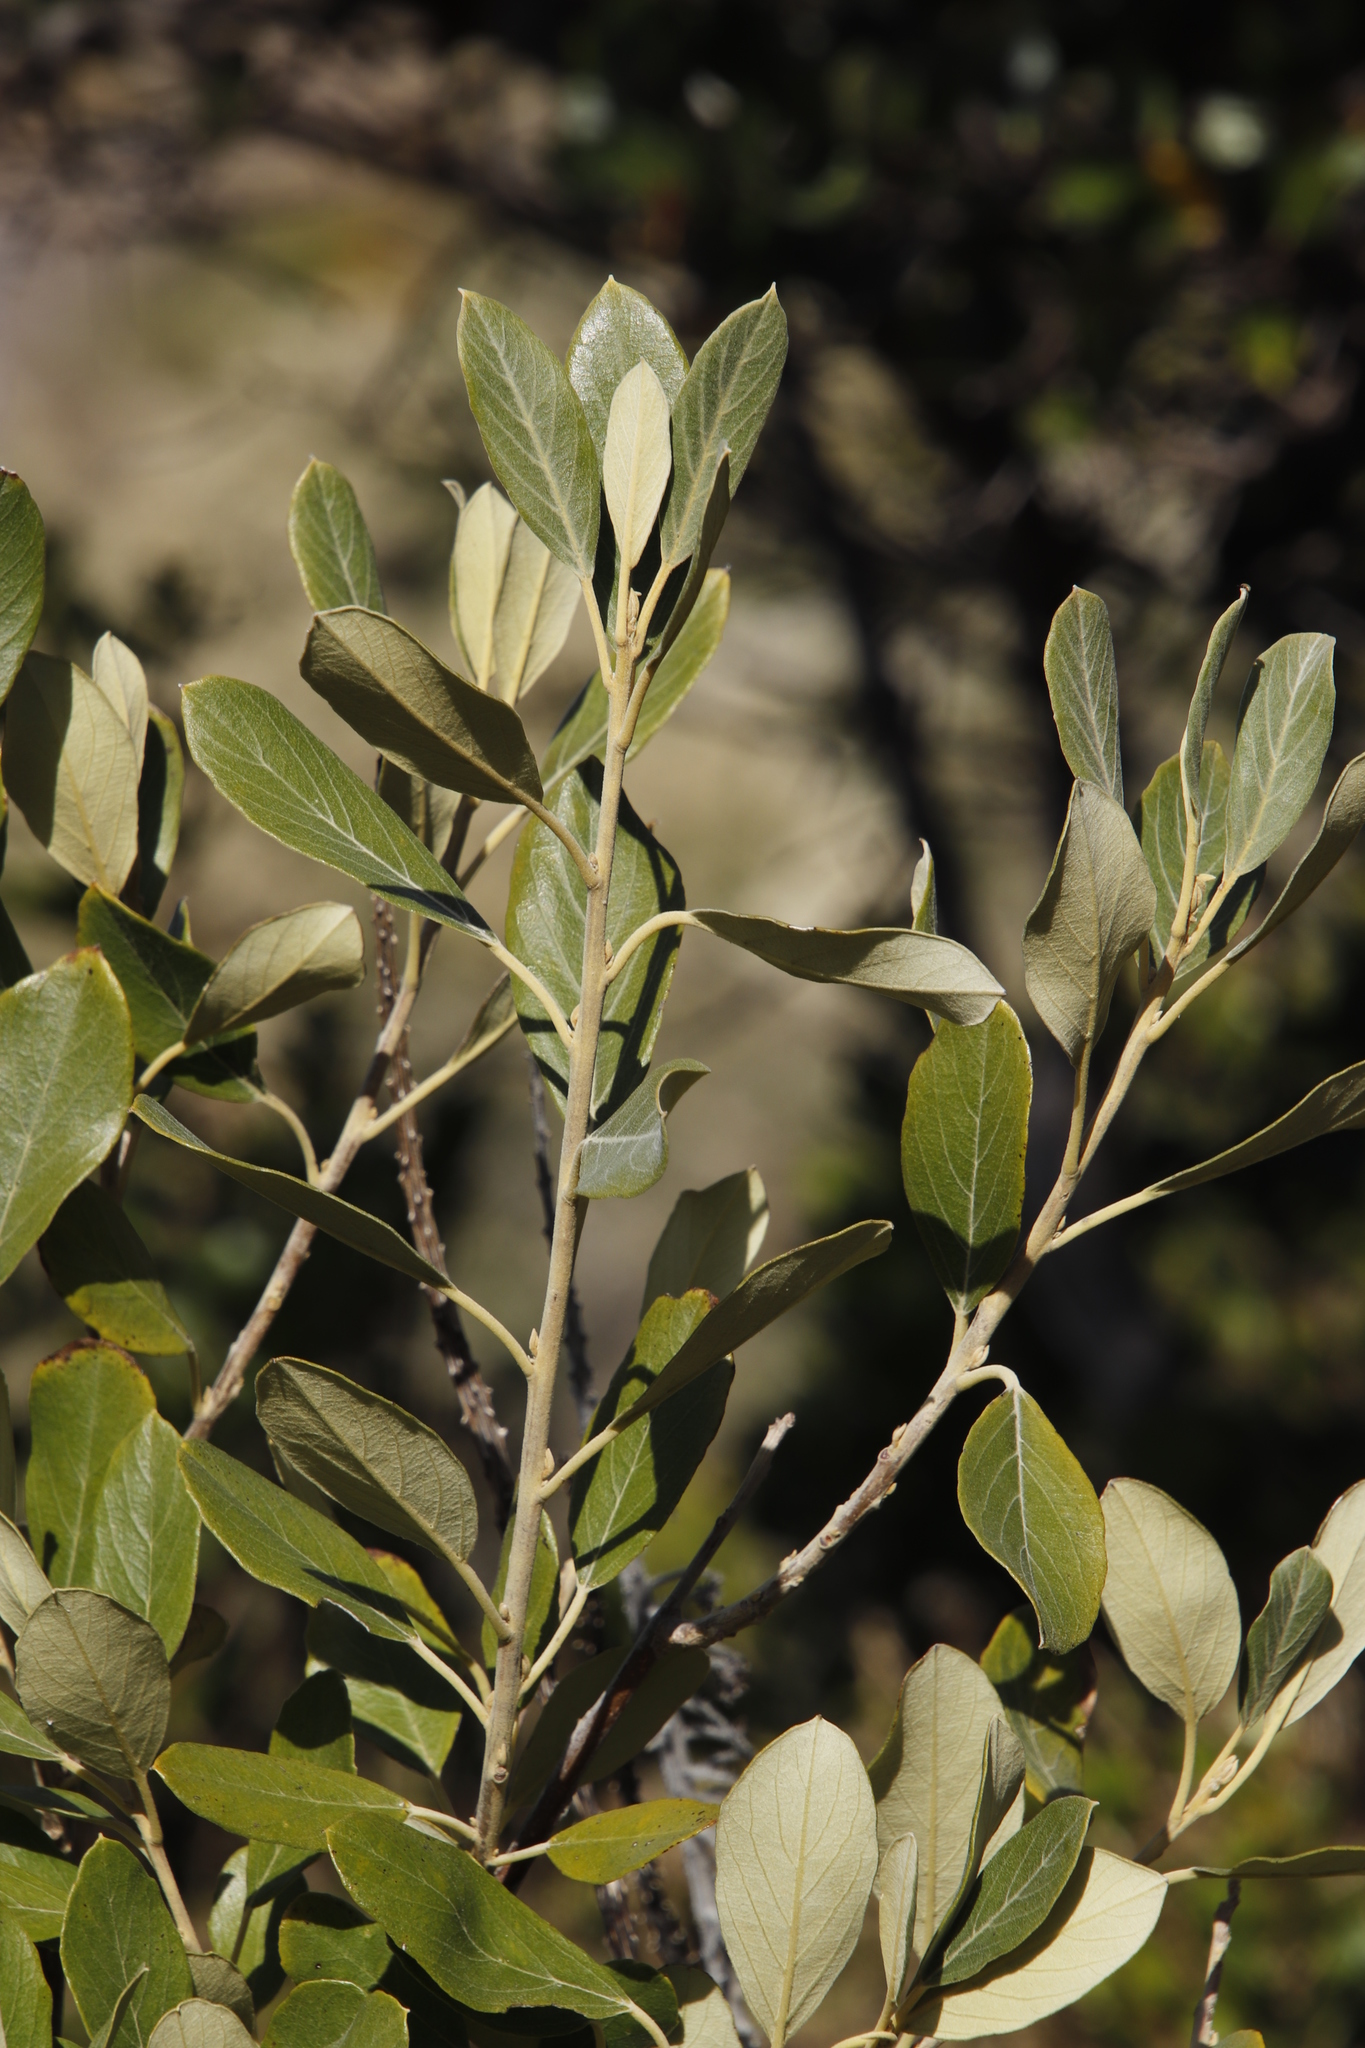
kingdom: Plantae
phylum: Tracheophyta
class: Magnoliopsida
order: Malpighiales
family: Achariaceae
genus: Kiggelaria
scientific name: Kiggelaria africana
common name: Wild peach
